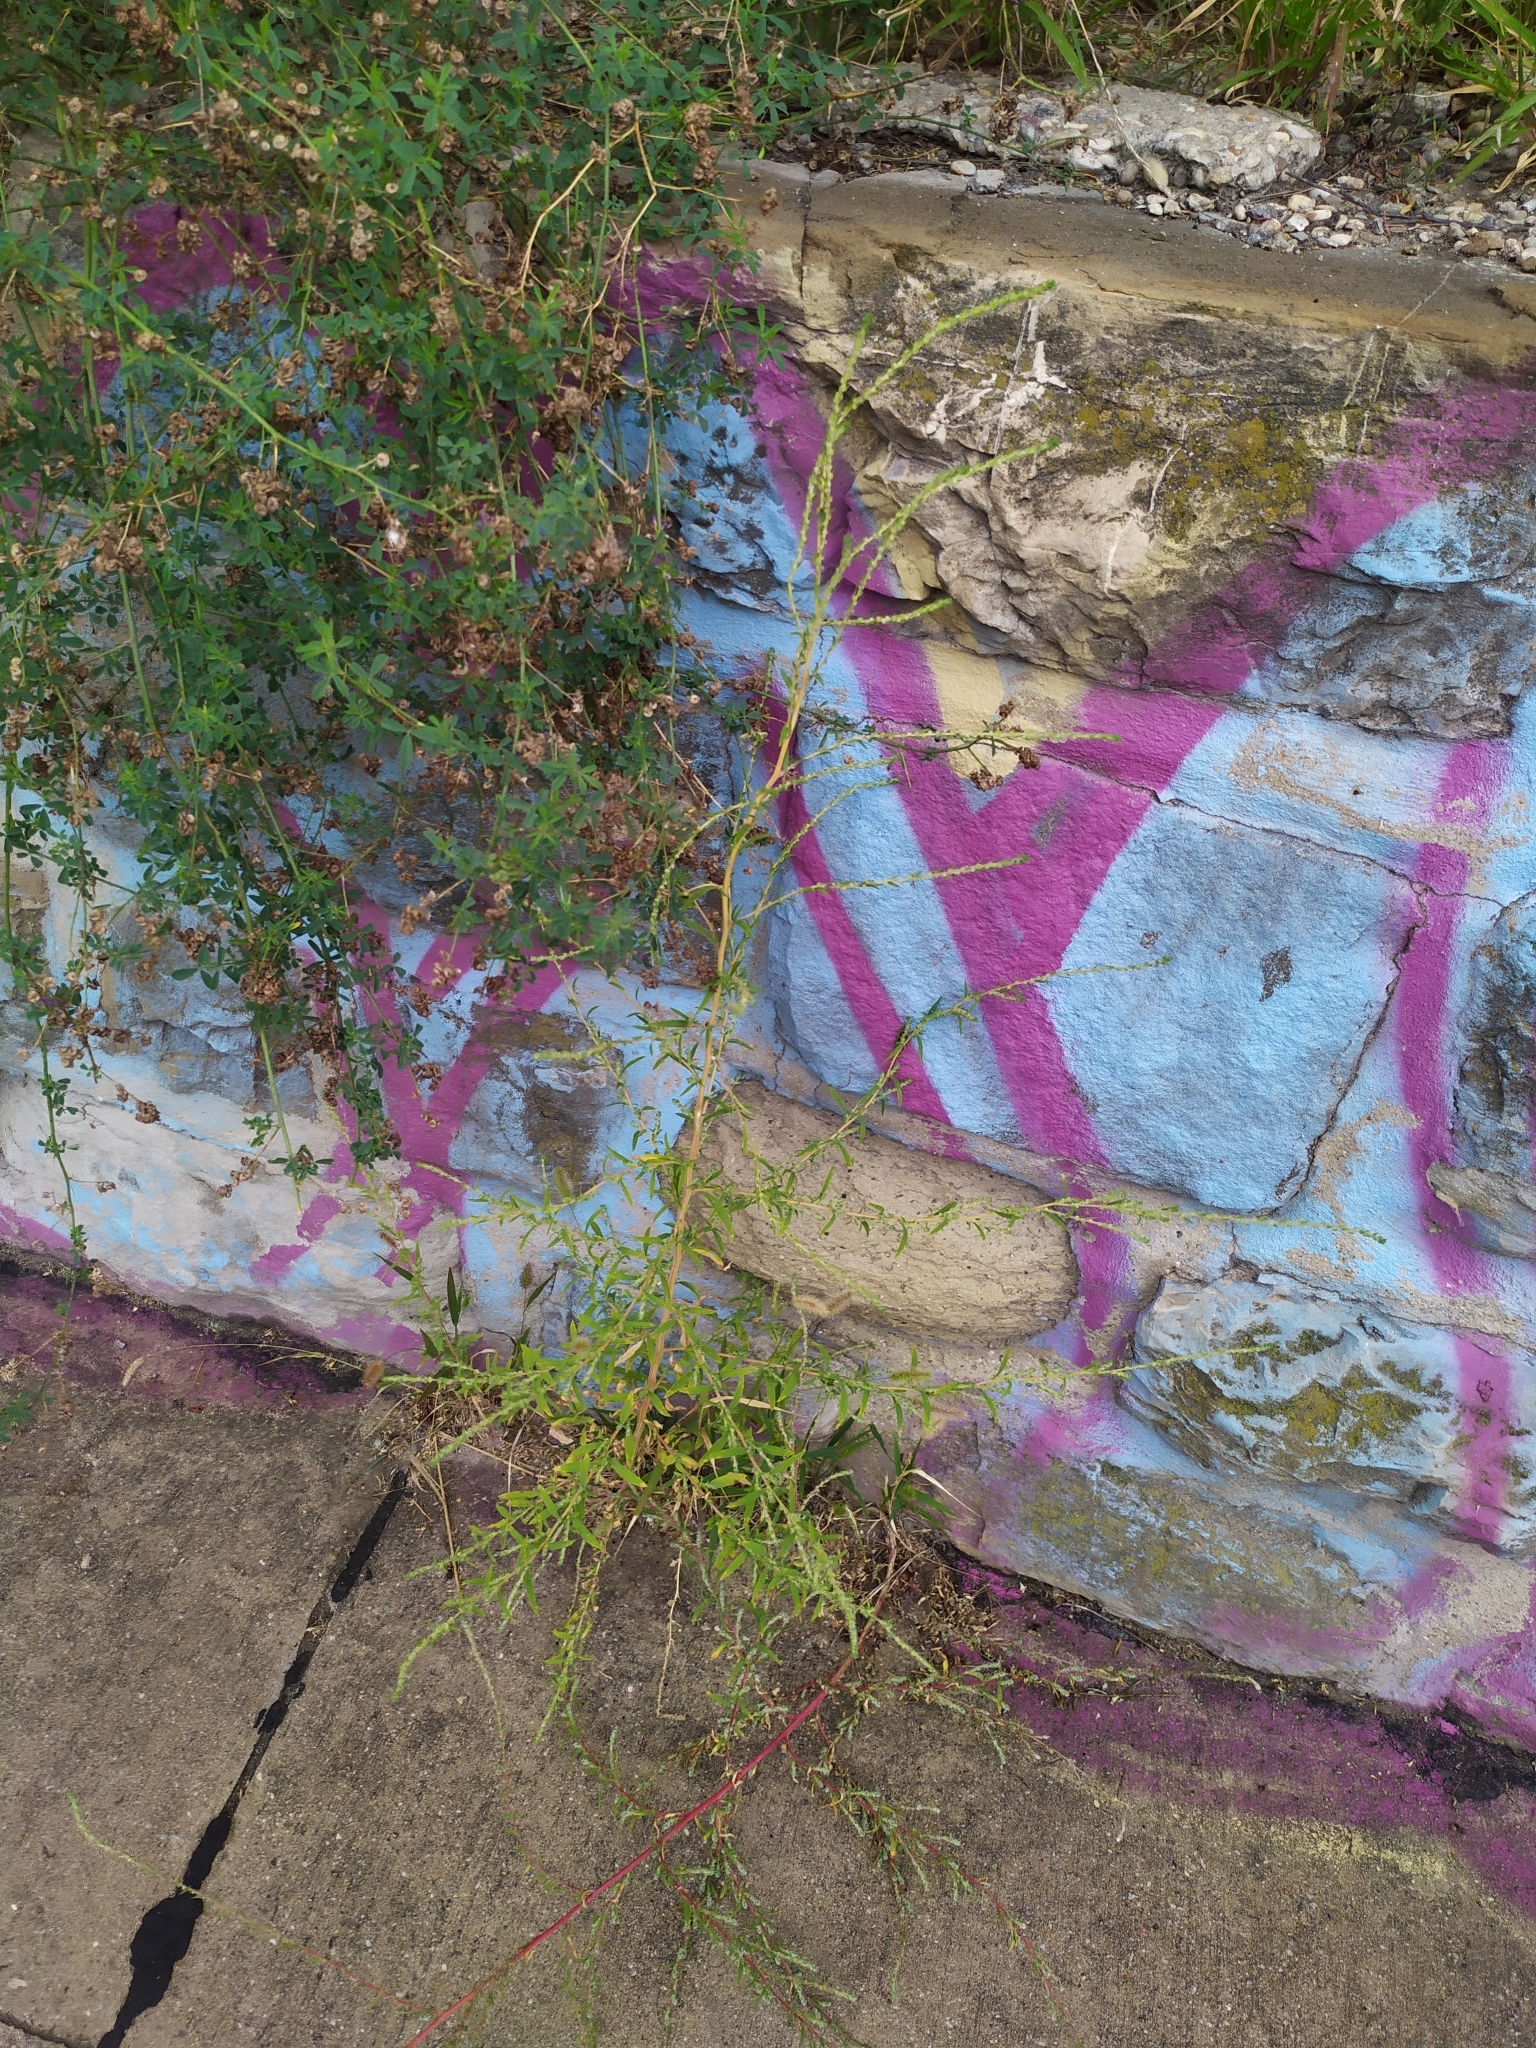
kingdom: Plantae
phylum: Tracheophyta
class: Magnoliopsida
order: Caryophyllales
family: Amaranthaceae
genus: Bassia
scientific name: Bassia scoparia
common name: Belvedere
